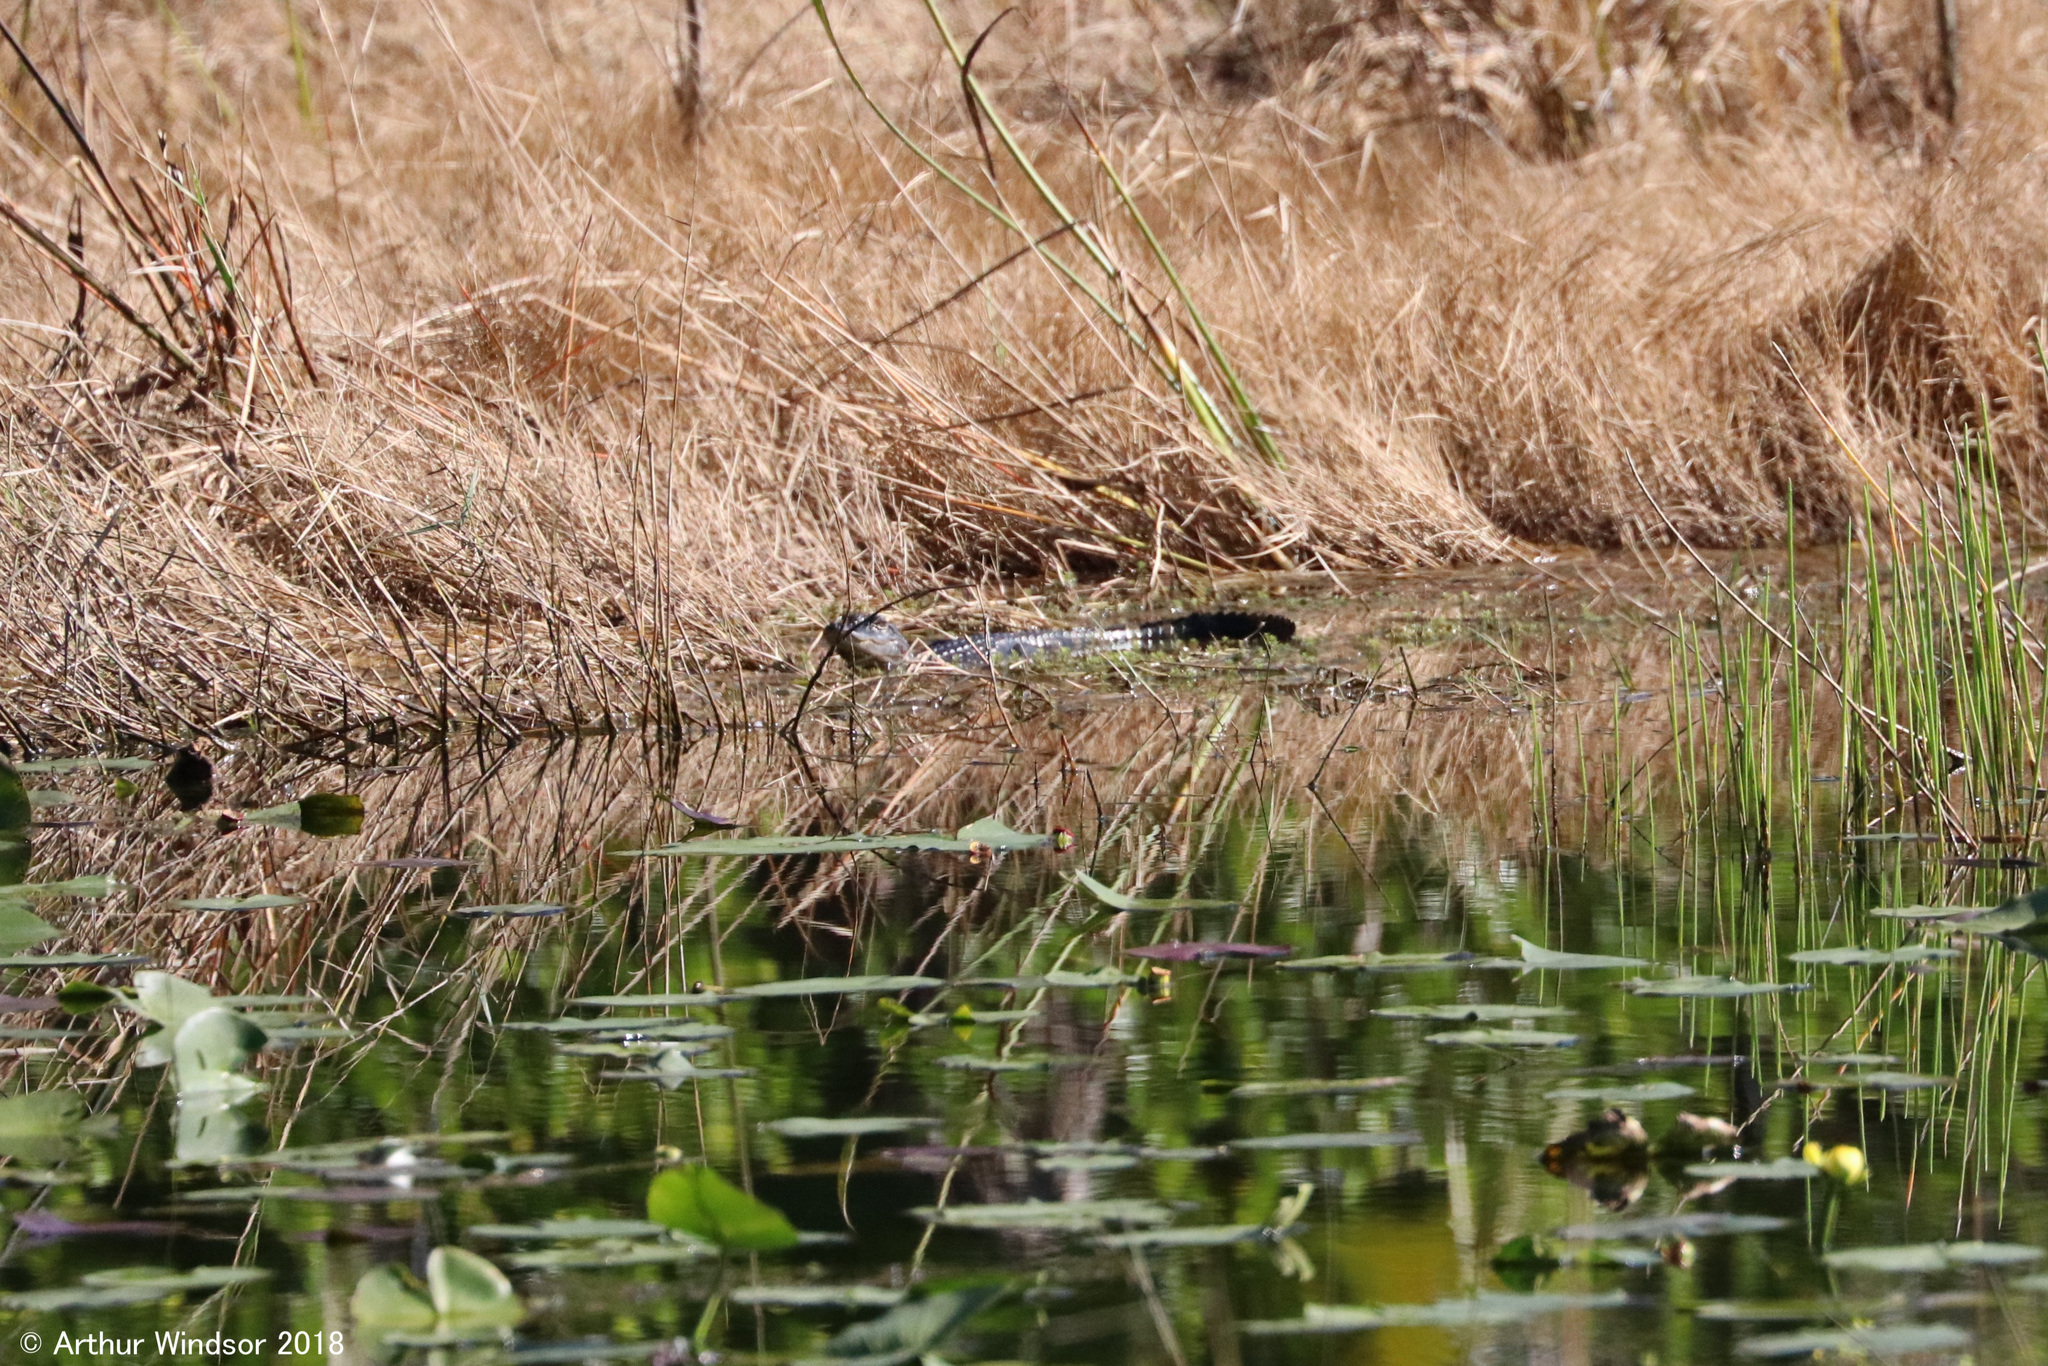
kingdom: Animalia
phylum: Chordata
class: Crocodylia
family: Alligatoridae
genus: Alligator
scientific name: Alligator mississippiensis
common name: American alligator
